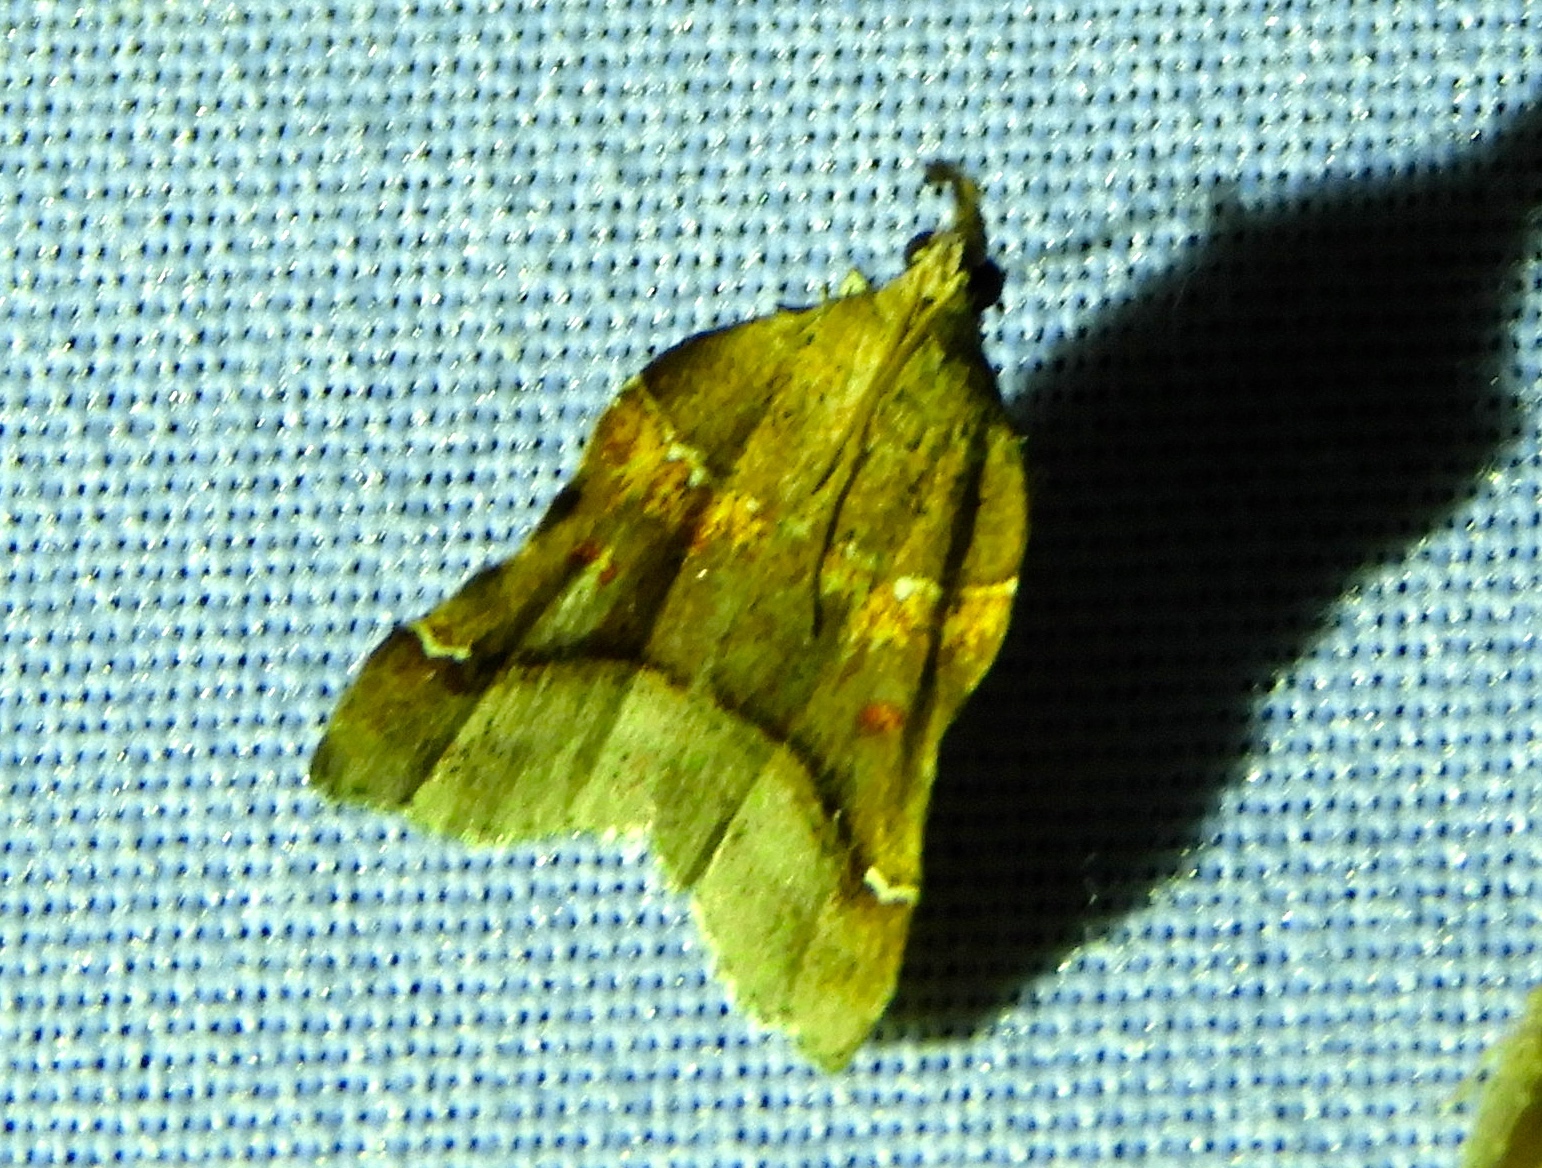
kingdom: Animalia
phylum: Arthropoda
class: Insecta
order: Lepidoptera
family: Pyralidae
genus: Clydonopteron
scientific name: Clydonopteron
